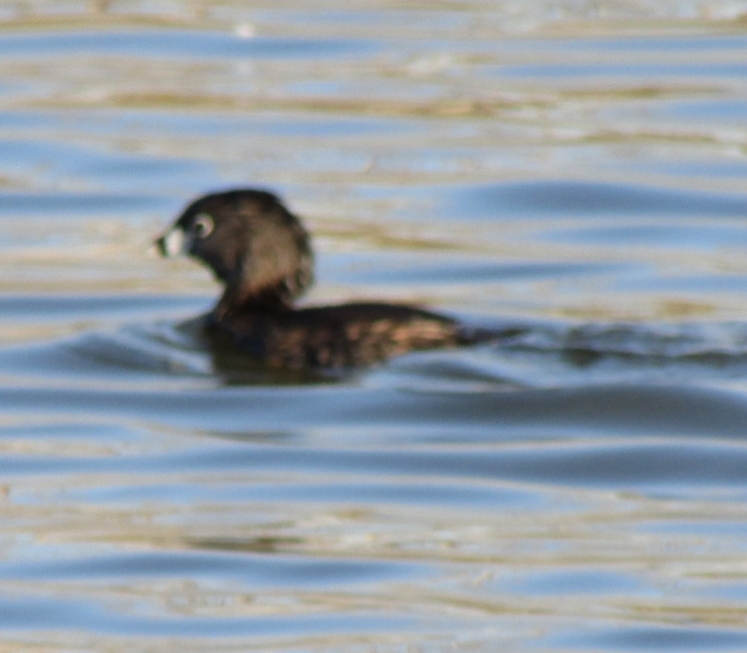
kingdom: Animalia
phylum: Chordata
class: Aves
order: Podicipediformes
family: Podicipedidae
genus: Podilymbus
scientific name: Podilymbus podiceps
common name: Pied-billed grebe
